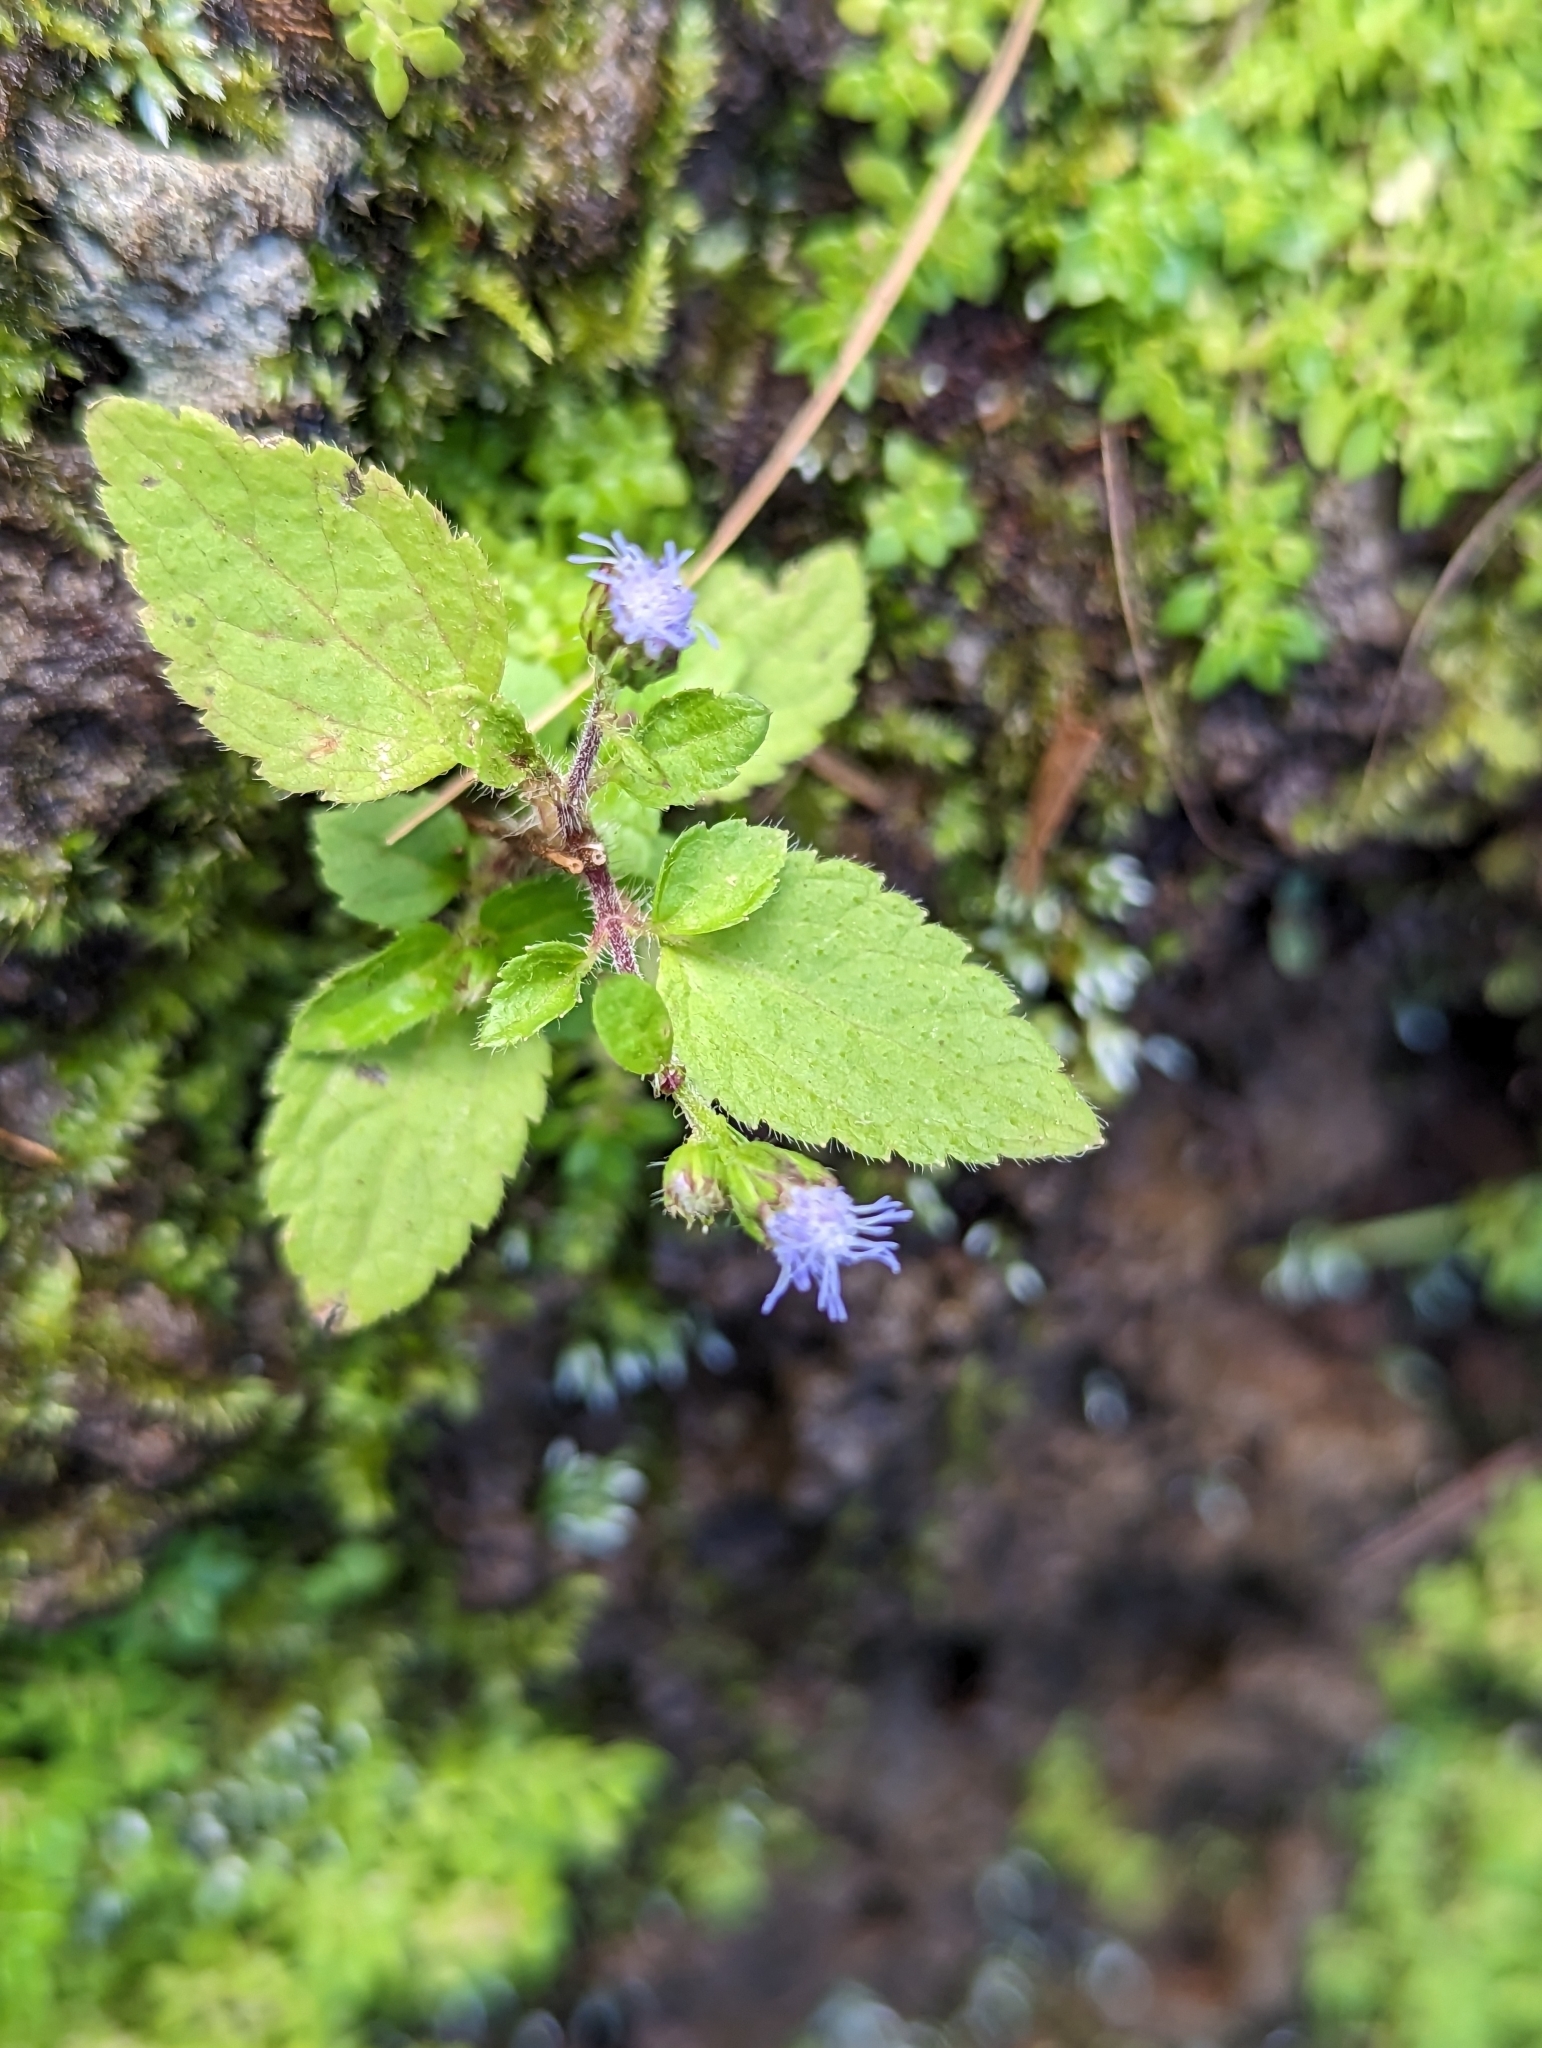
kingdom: Plantae
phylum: Tracheophyta
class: Magnoliopsida
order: Asterales
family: Asteraceae
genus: Ageratum
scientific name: Ageratum houstonianum
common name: Bluemink
